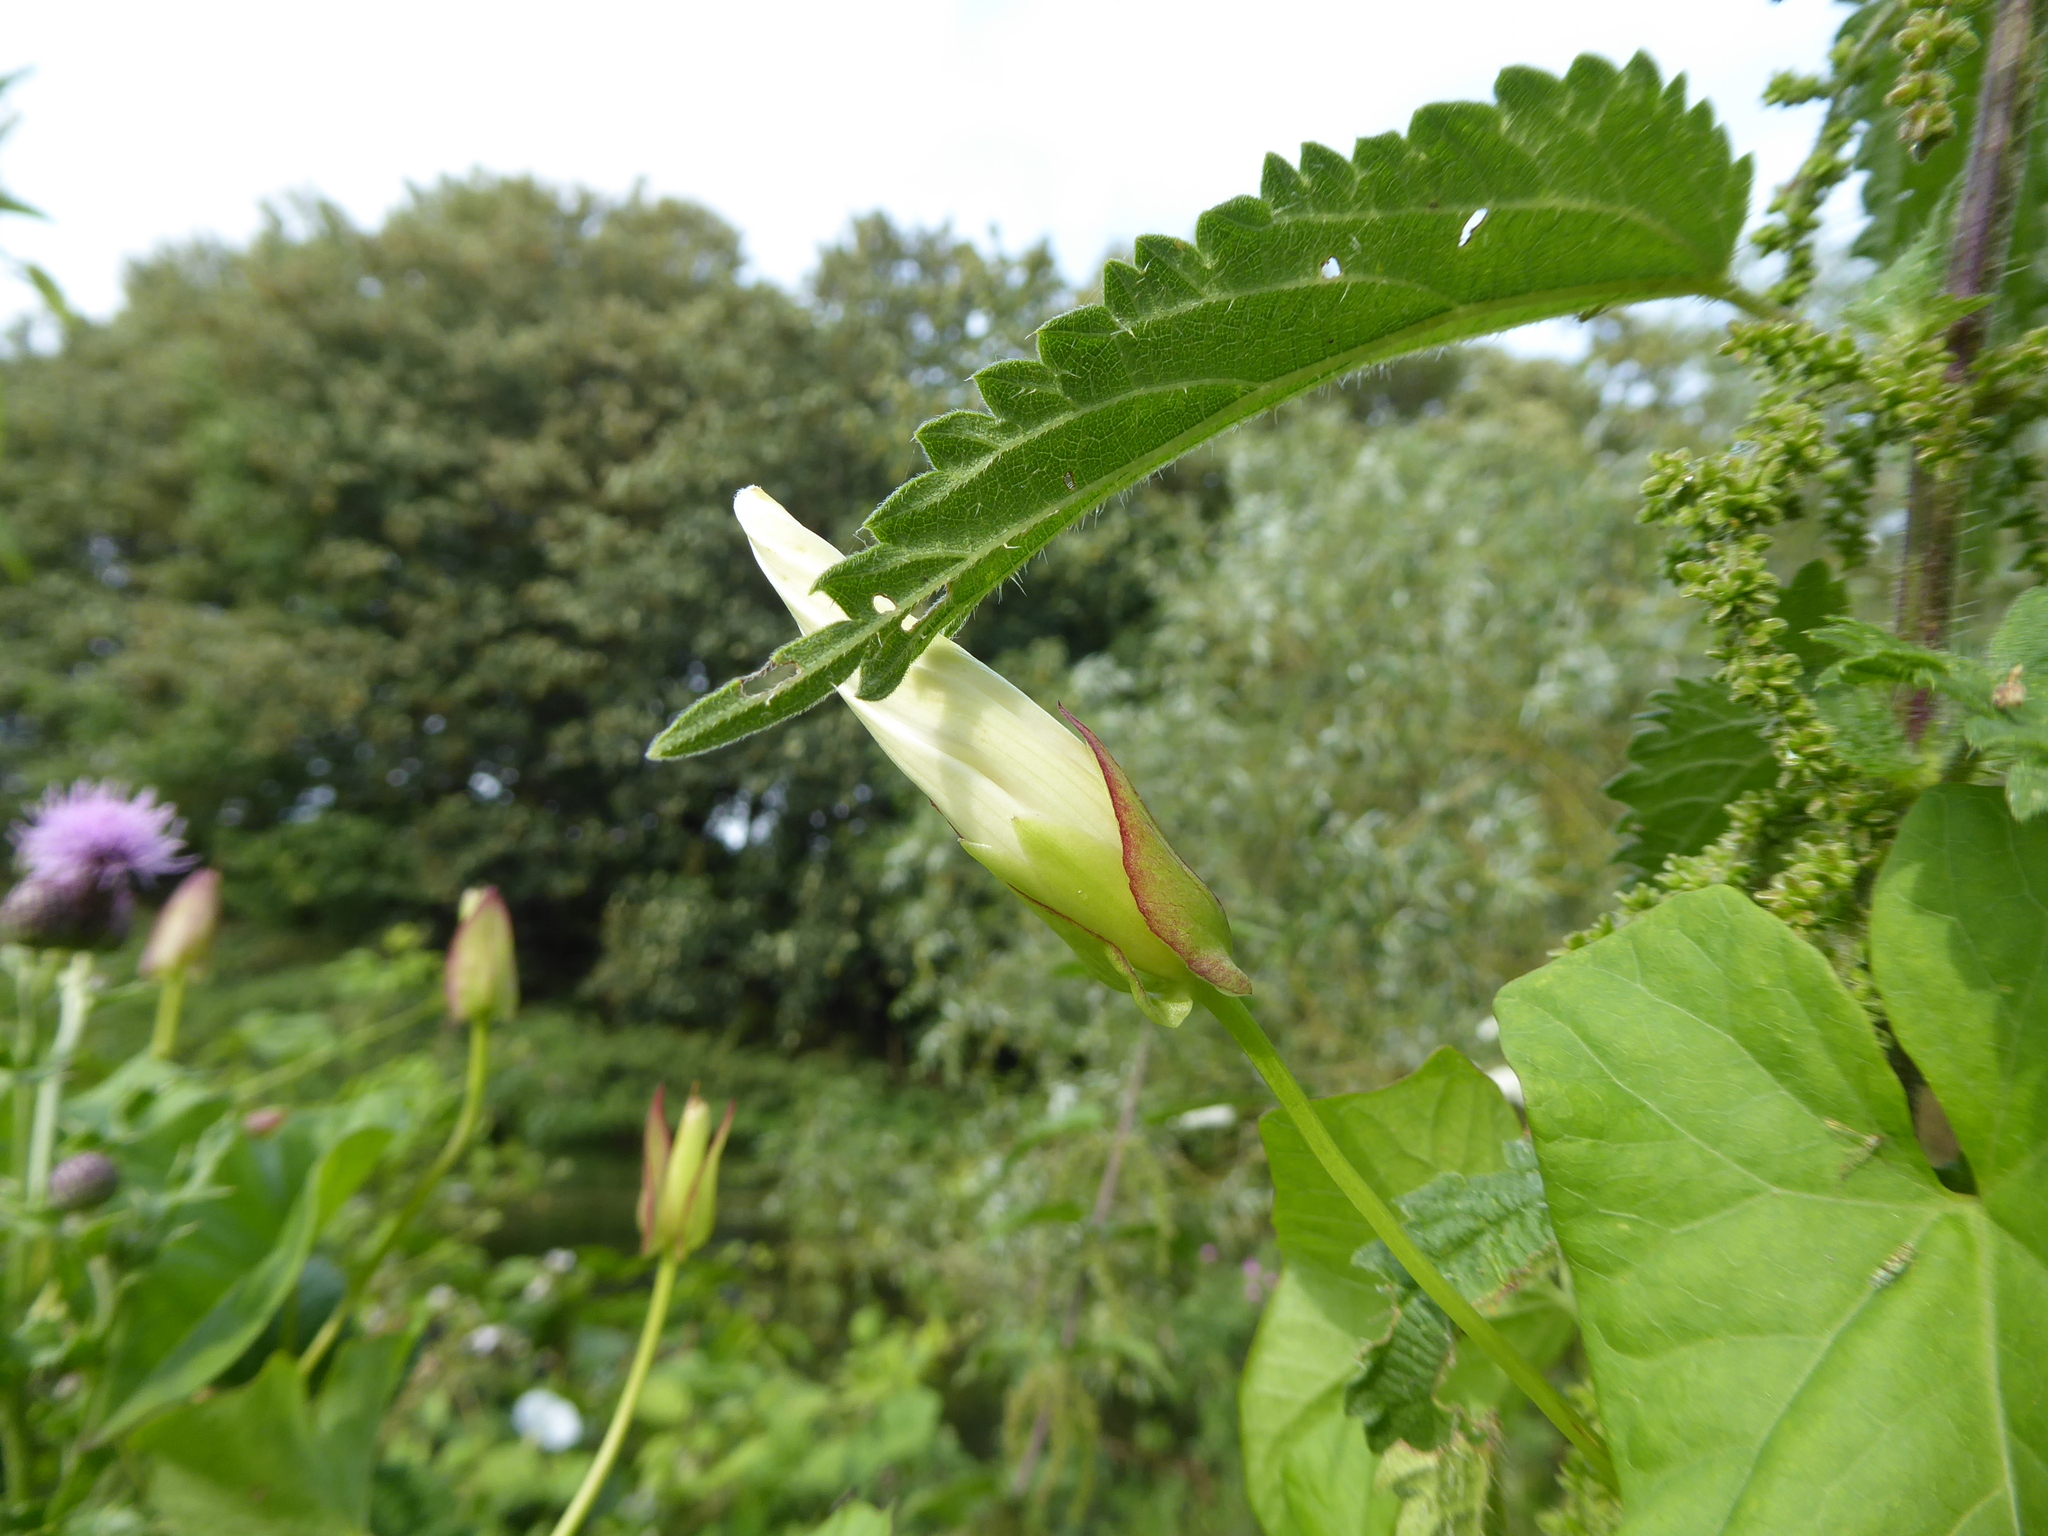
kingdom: Plantae
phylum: Tracheophyta
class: Magnoliopsida
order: Solanales
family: Convolvulaceae
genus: Calystegia
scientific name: Calystegia sepium
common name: Hedge bindweed
